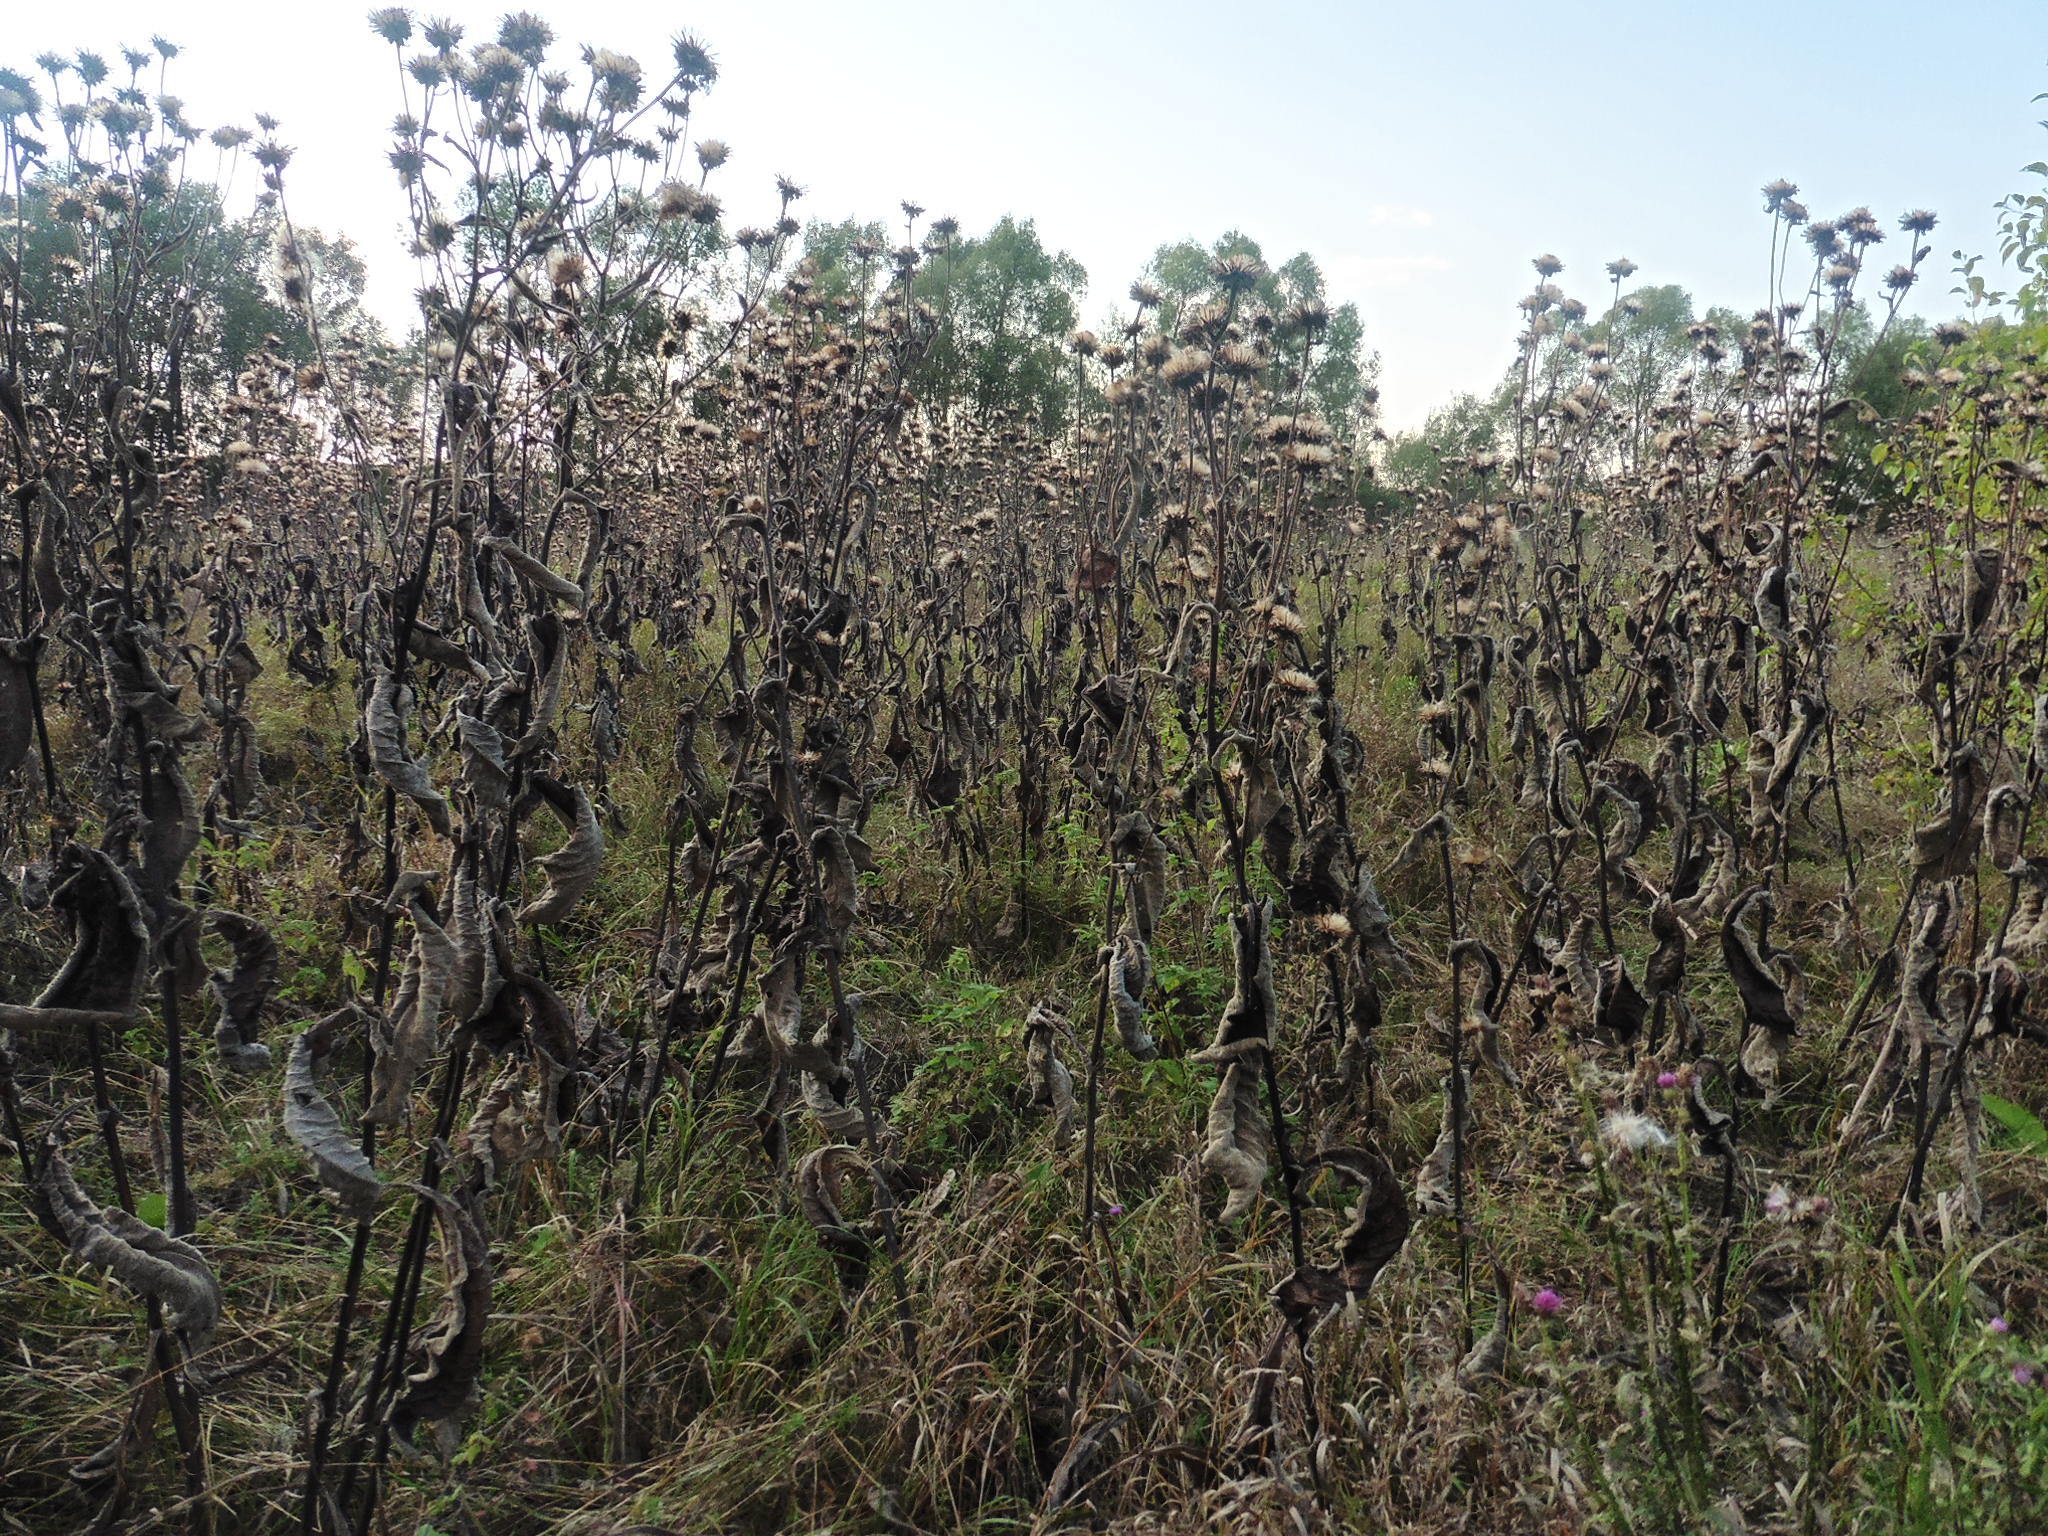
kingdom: Plantae
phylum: Tracheophyta
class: Magnoliopsida
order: Asterales
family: Asteraceae
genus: Inula
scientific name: Inula helenium
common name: Elecampane
